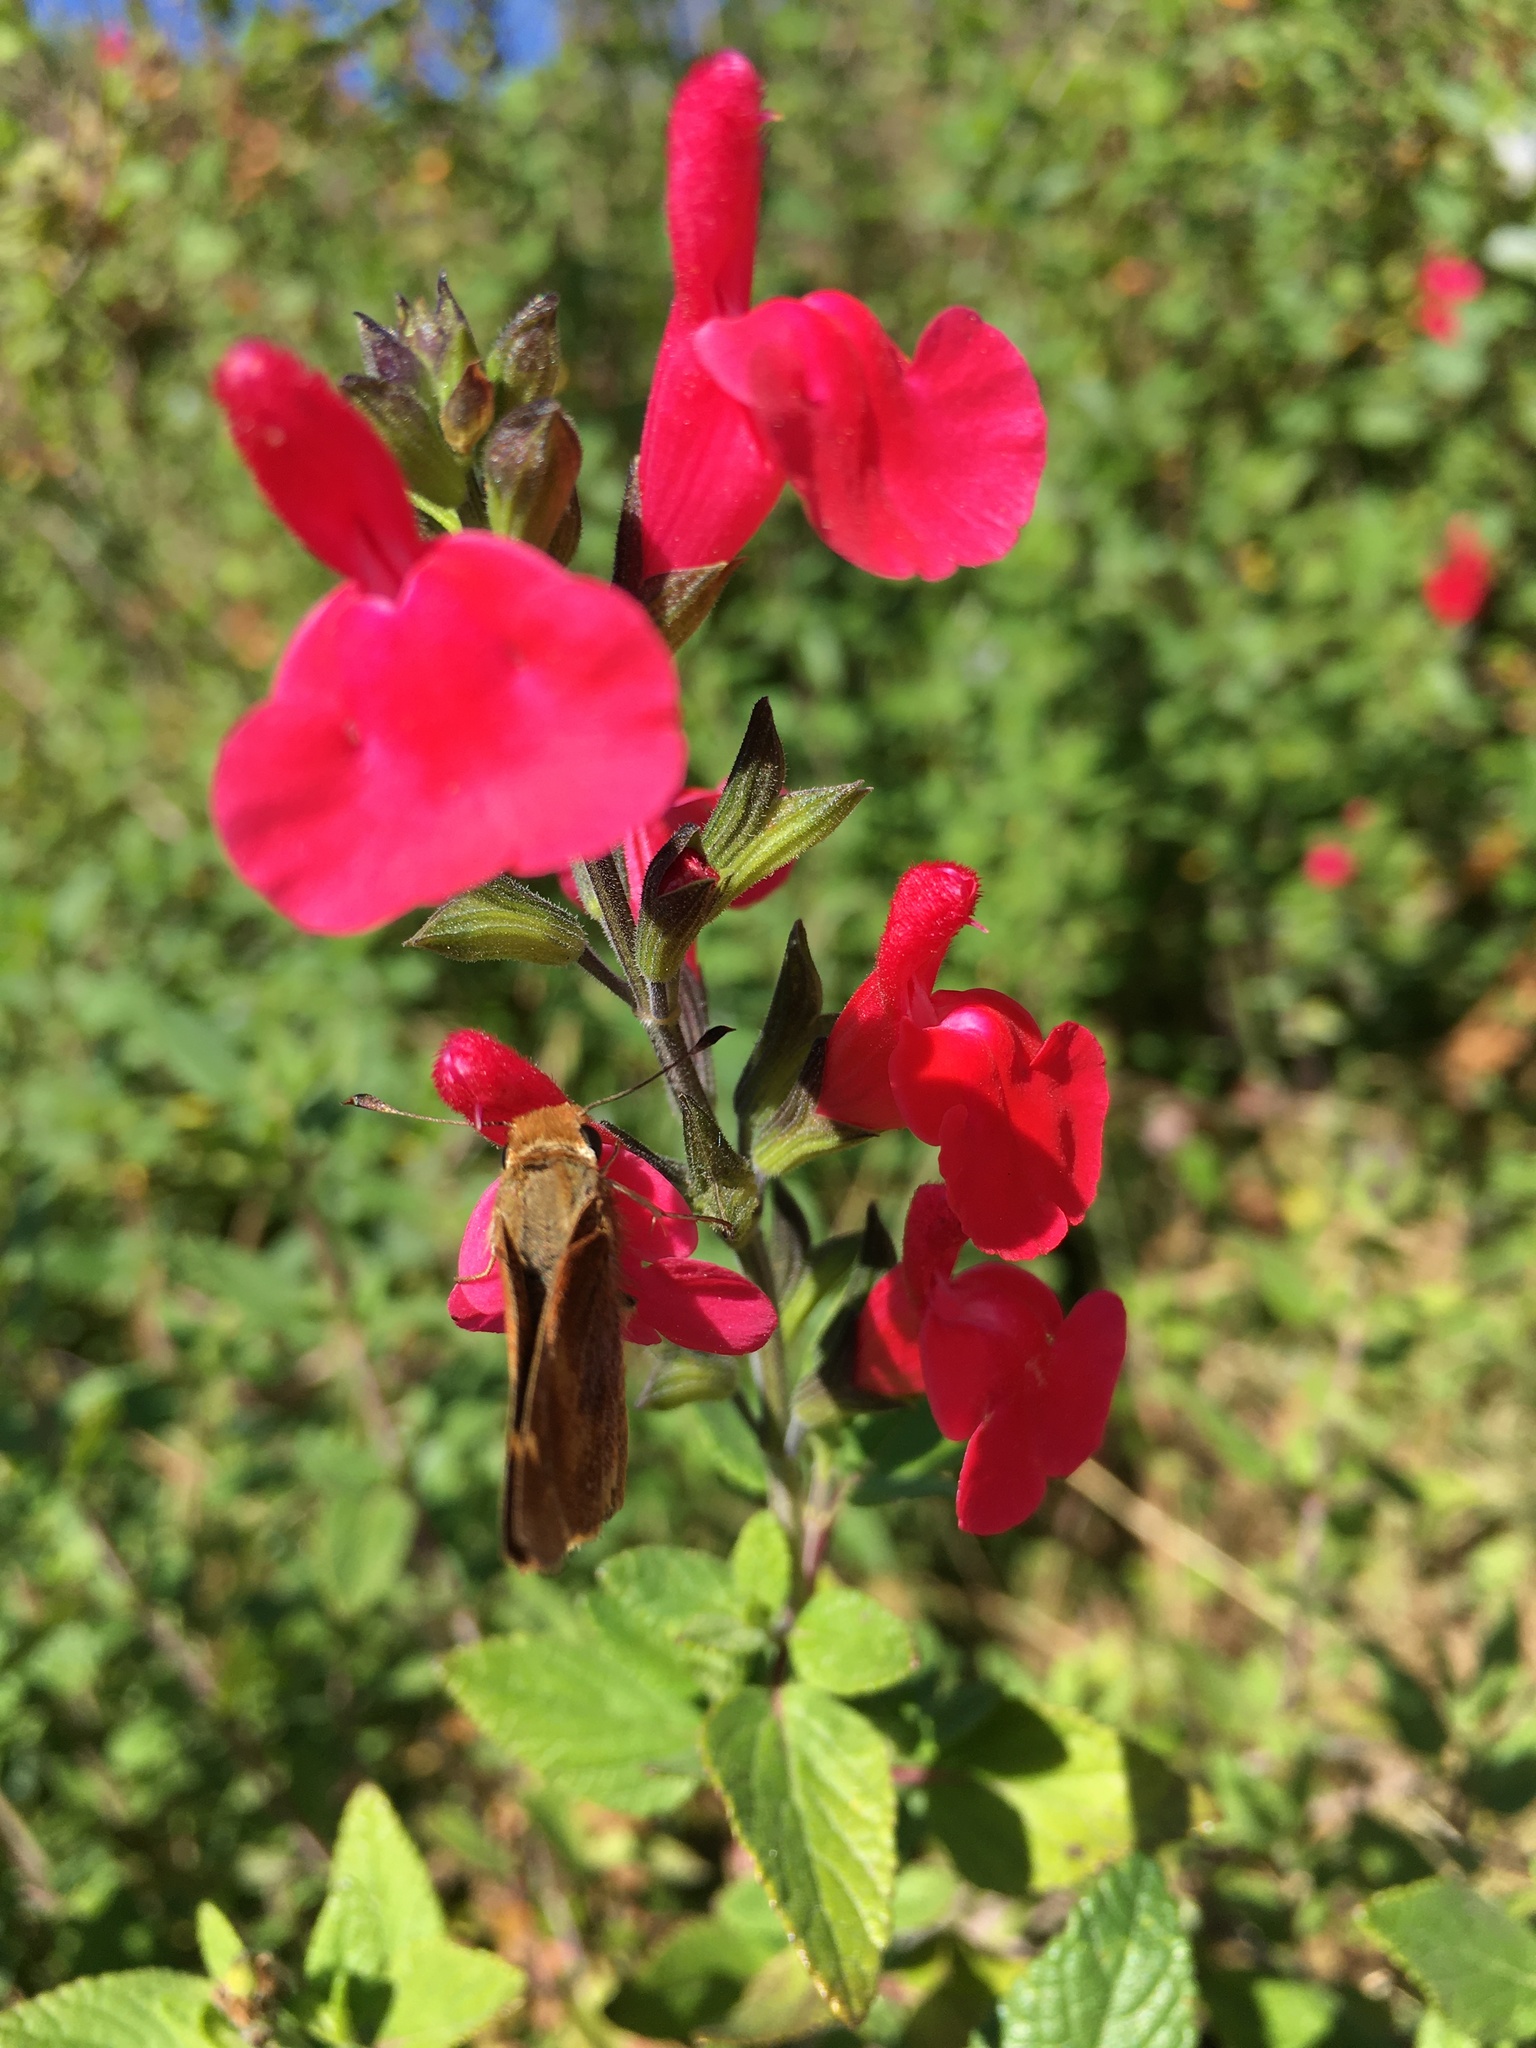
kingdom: Animalia
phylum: Arthropoda
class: Insecta
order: Lepidoptera
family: Hesperiidae
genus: Lon
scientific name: Lon melane
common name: Umber skipper
